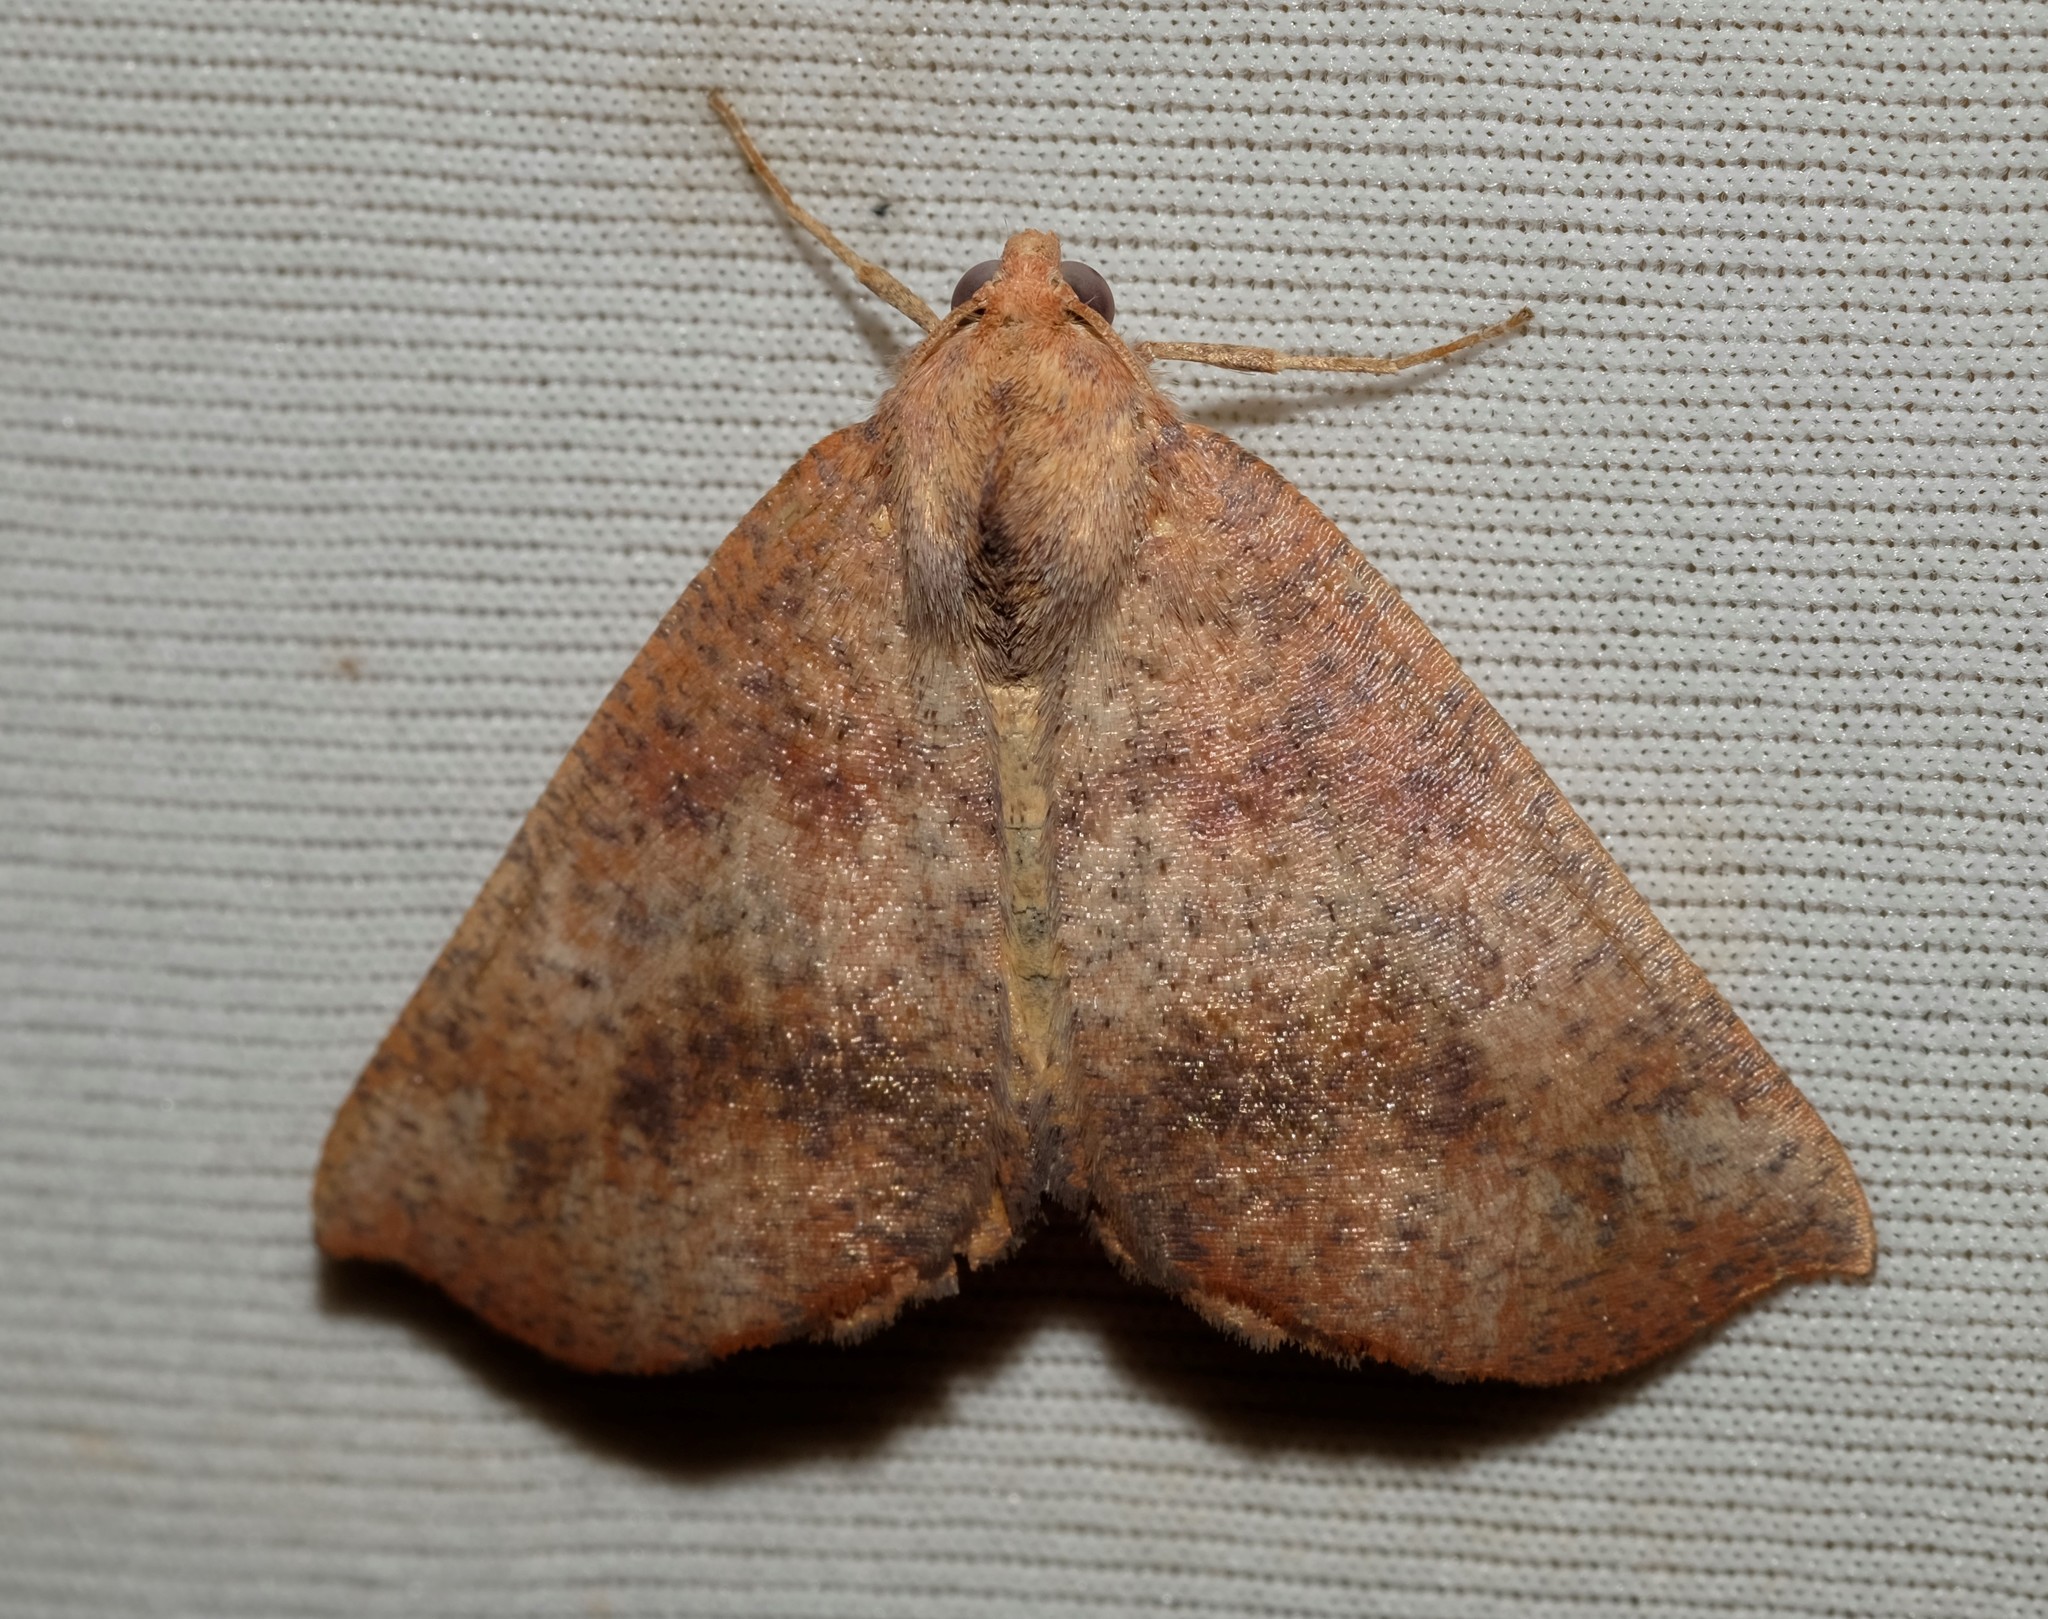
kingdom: Animalia
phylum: Arthropoda
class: Insecta
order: Lepidoptera
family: Geometridae
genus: Mnesampela
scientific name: Mnesampela privata
